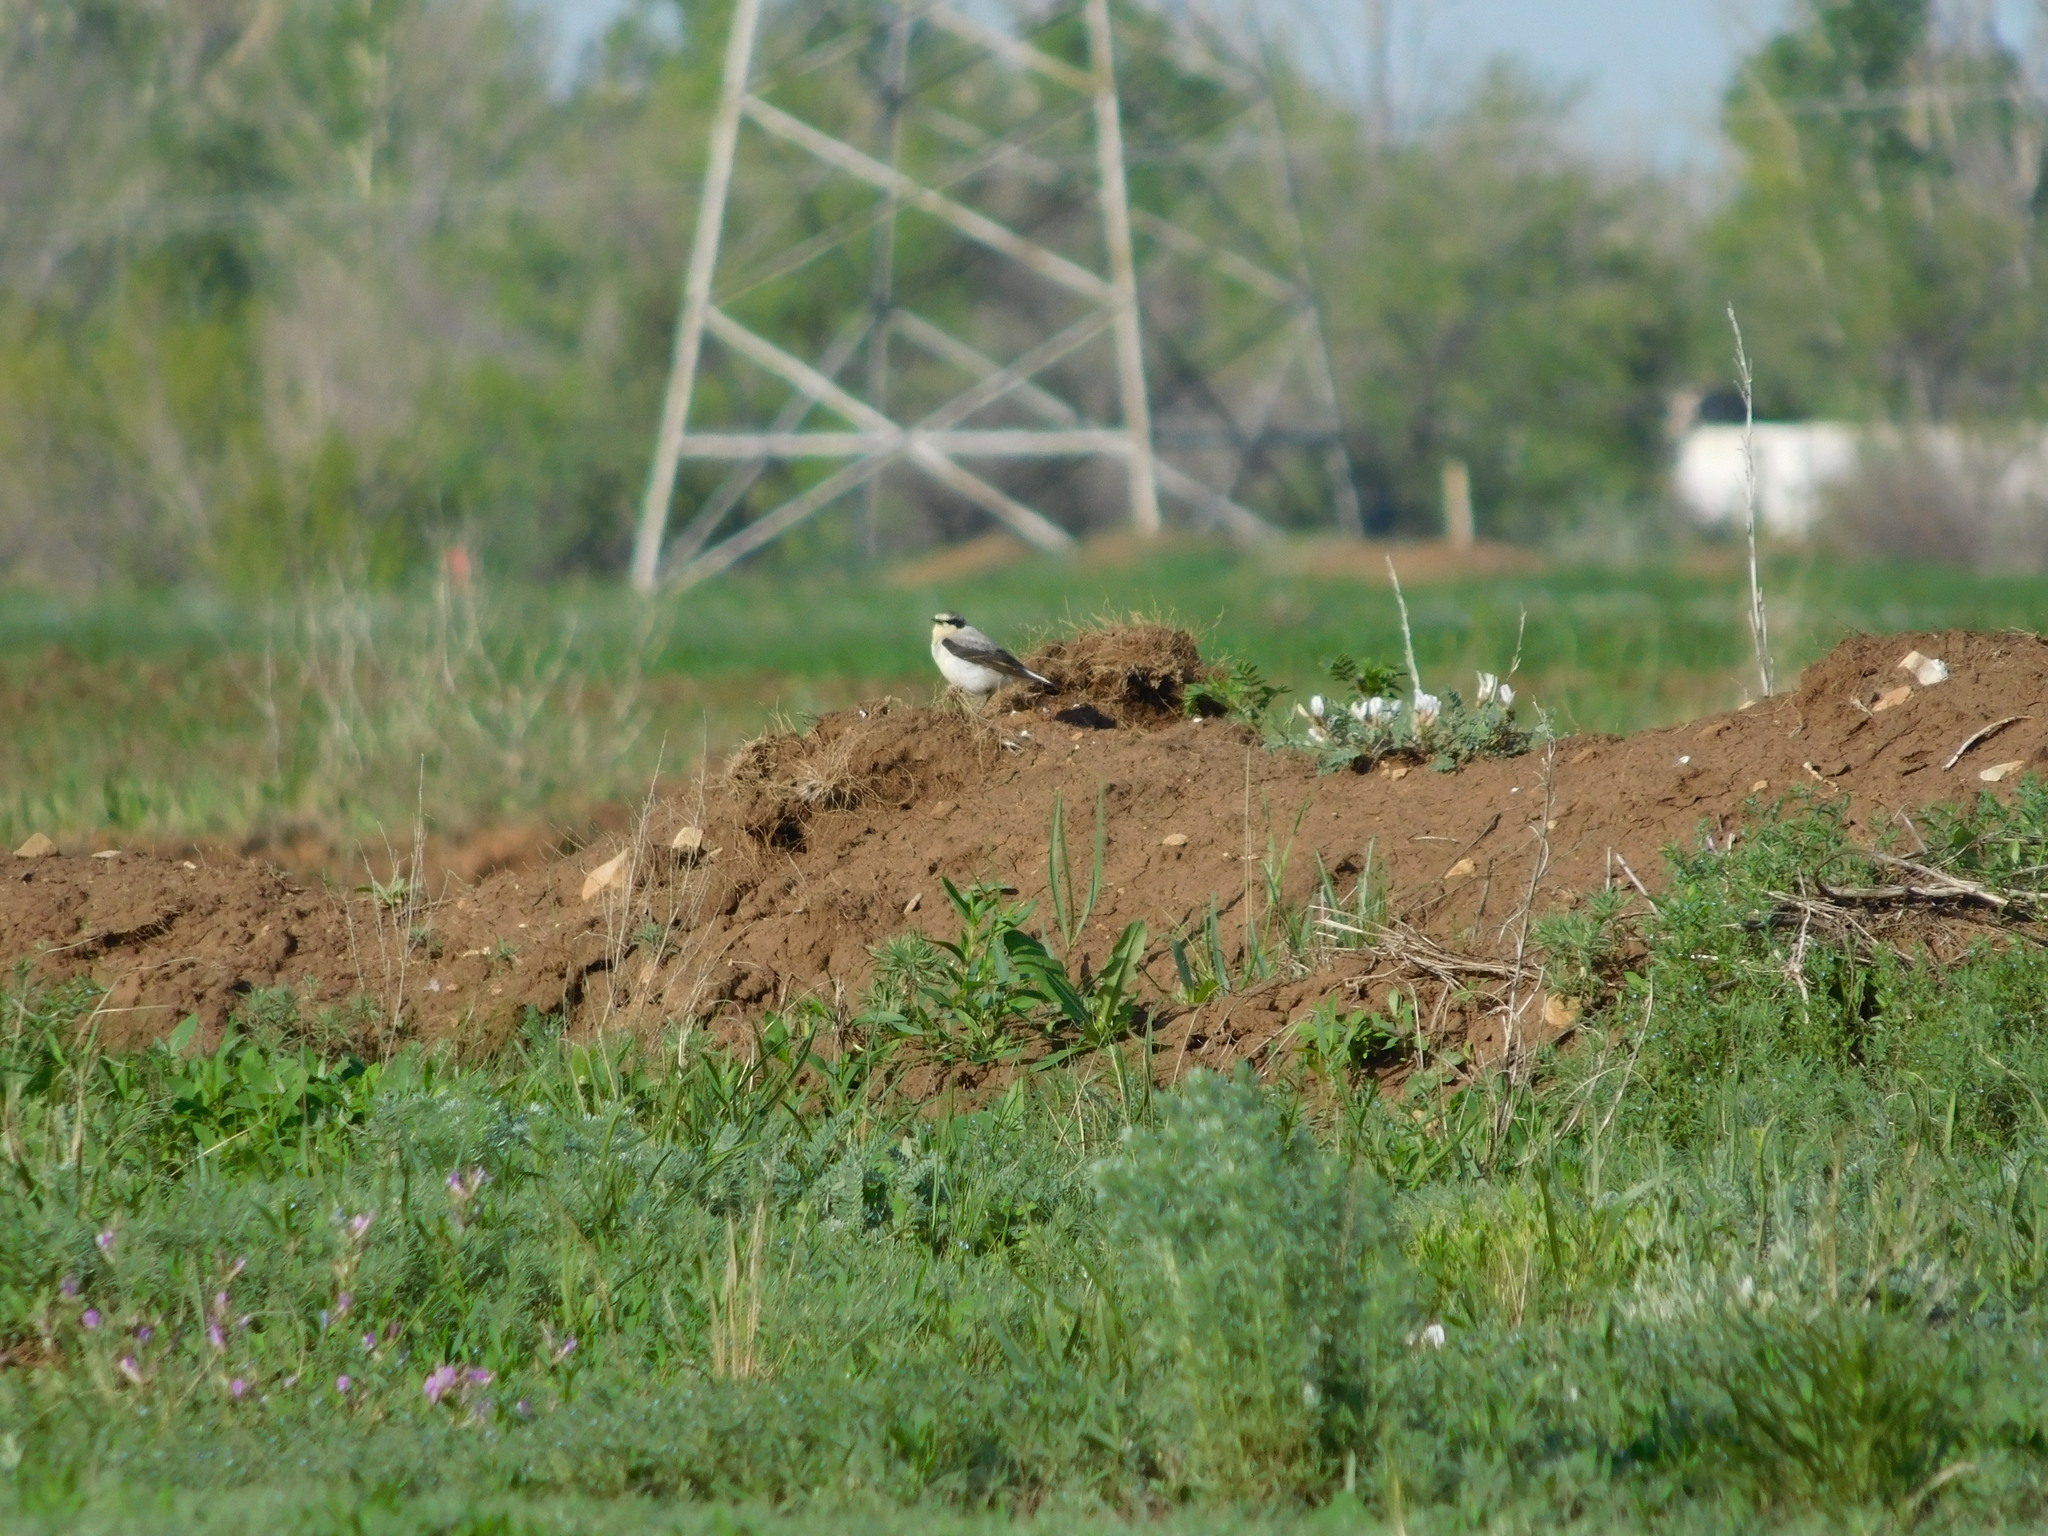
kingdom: Animalia
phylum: Chordata
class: Aves
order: Passeriformes
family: Muscicapidae
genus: Oenanthe
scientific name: Oenanthe oenanthe
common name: Northern wheatear
